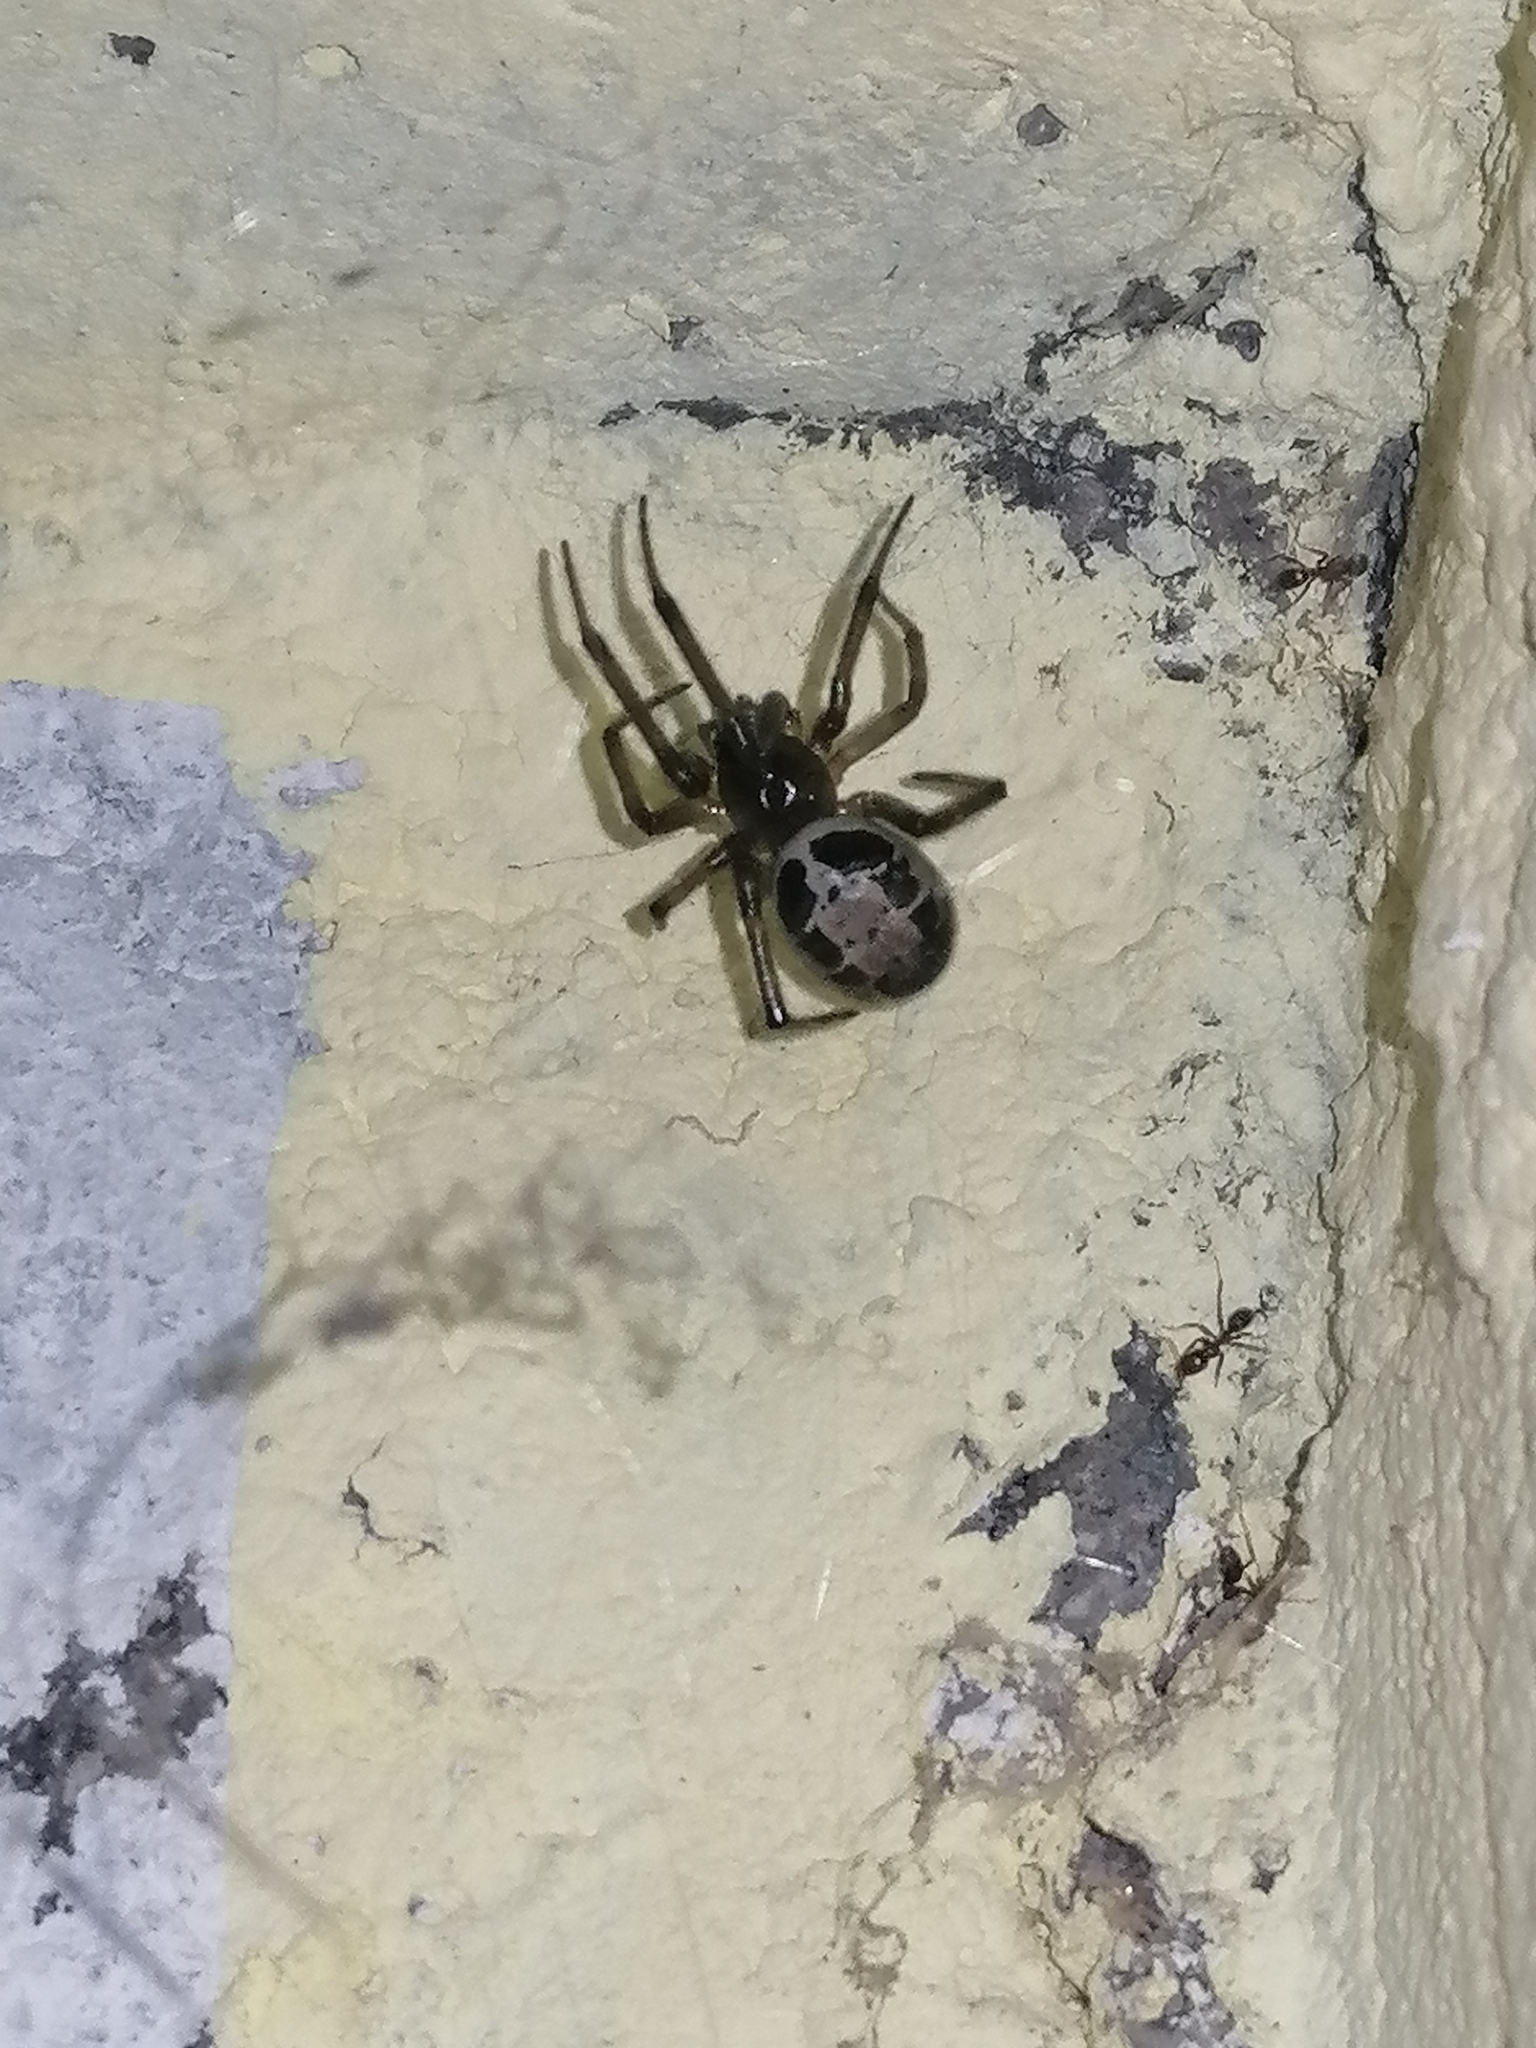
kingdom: Animalia
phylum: Arthropoda
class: Arachnida
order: Araneae
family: Theridiidae
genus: Steatoda
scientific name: Steatoda nobilis
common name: Cobweb weaver
